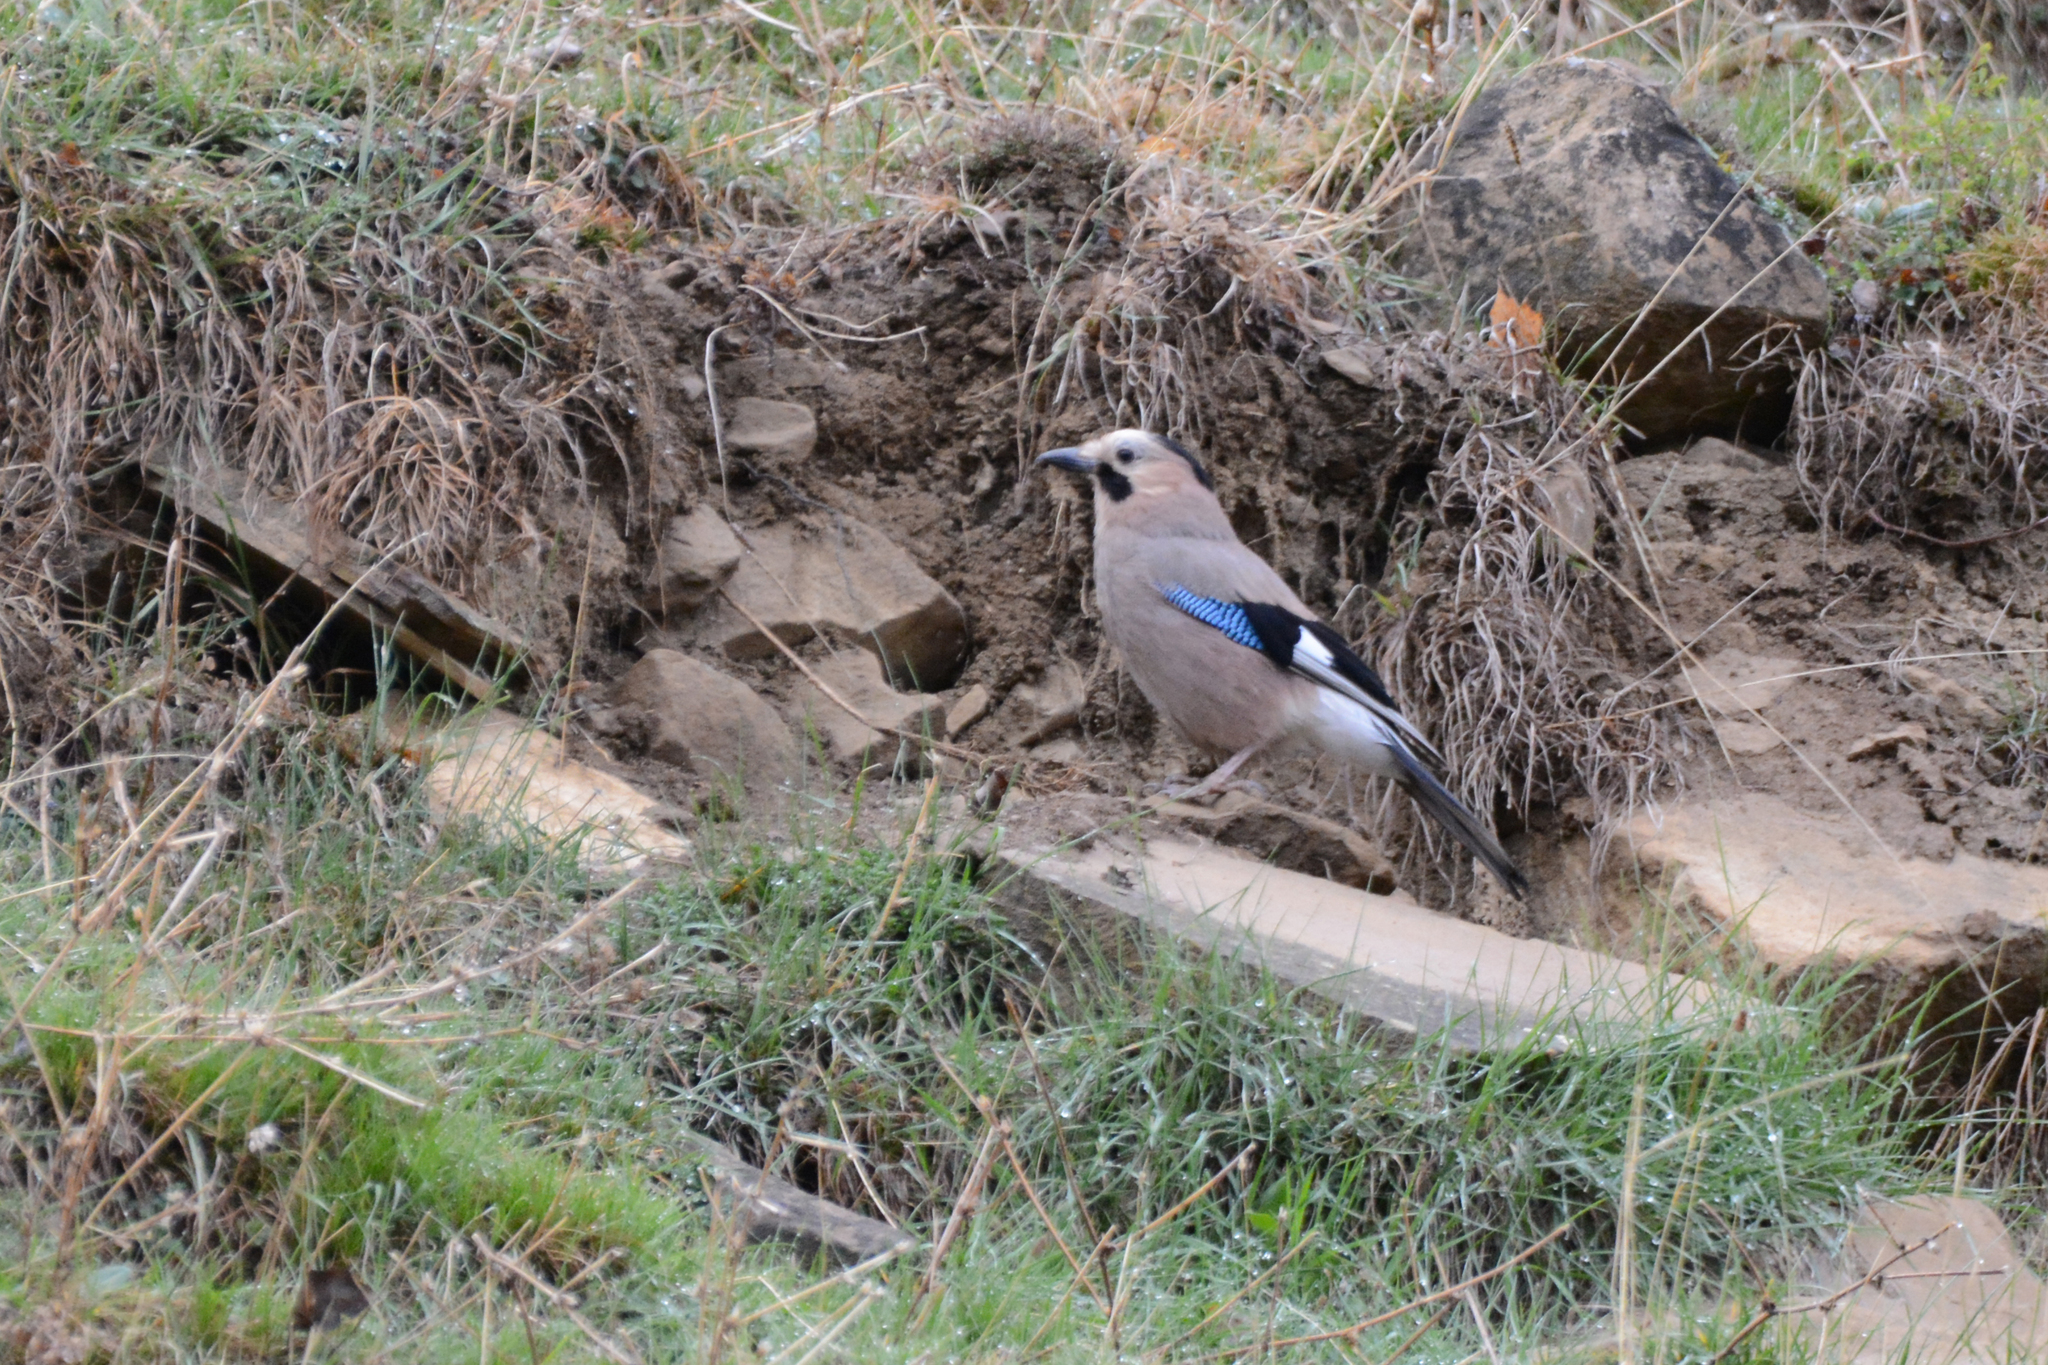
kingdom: Animalia
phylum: Chordata
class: Aves
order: Passeriformes
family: Corvidae
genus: Garrulus
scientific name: Garrulus glandarius
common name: Eurasian jay
